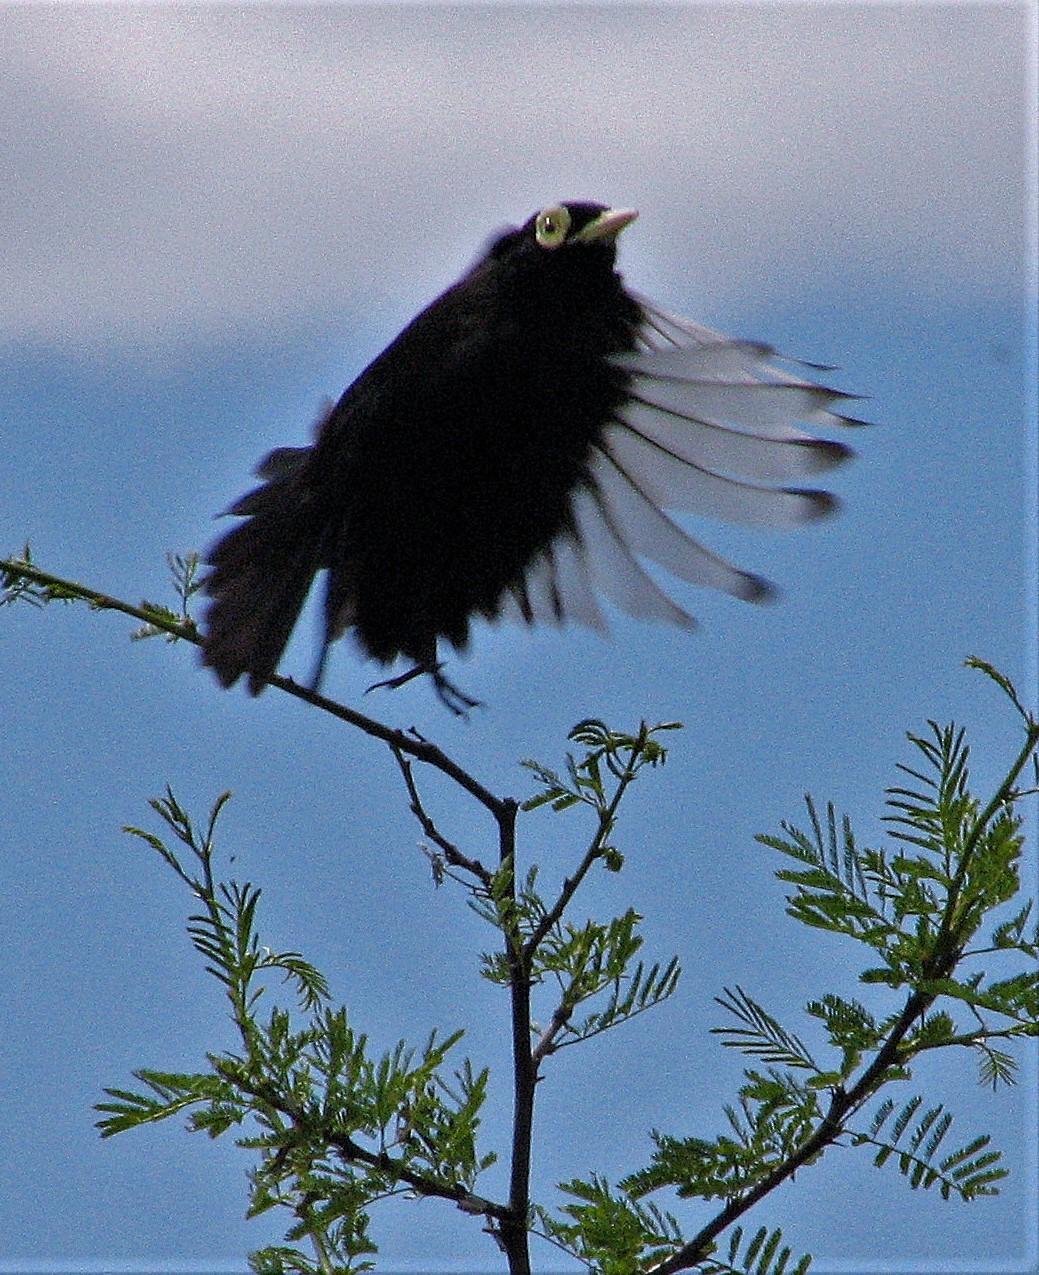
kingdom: Animalia
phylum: Chordata
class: Aves
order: Passeriformes
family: Tyrannidae
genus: Hymenops
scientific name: Hymenops perspicillatus
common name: Spectacled tyrant
